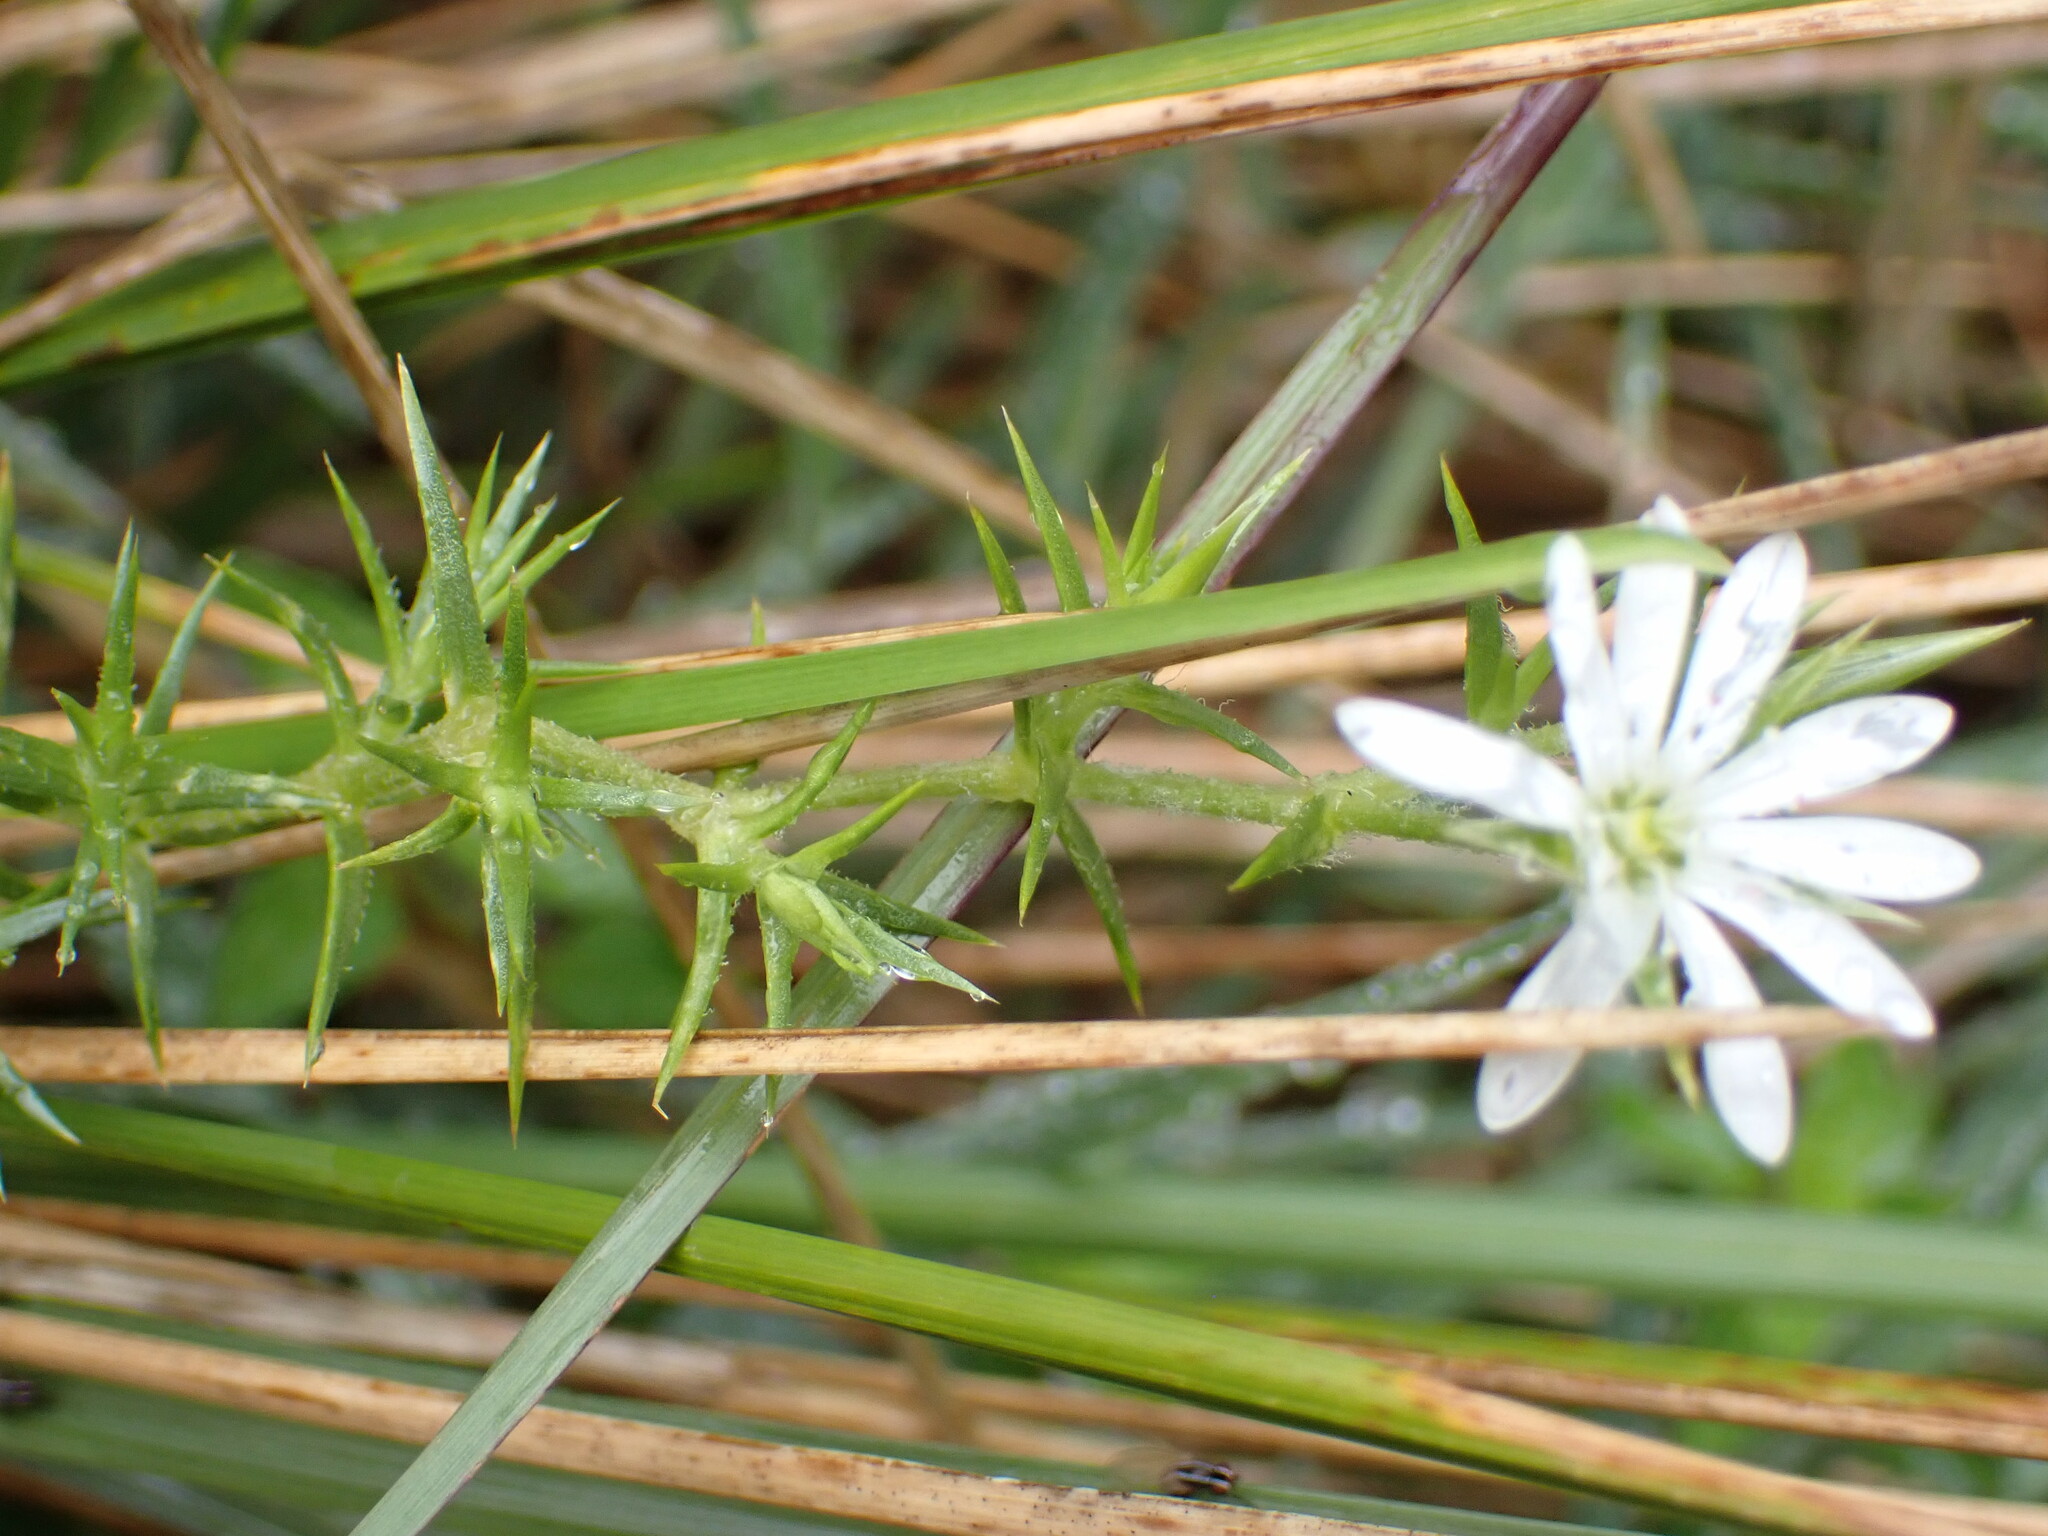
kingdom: Plantae
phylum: Tracheophyta
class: Magnoliopsida
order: Caryophyllales
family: Caryophyllaceae
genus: Stellaria
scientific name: Stellaria pungens
